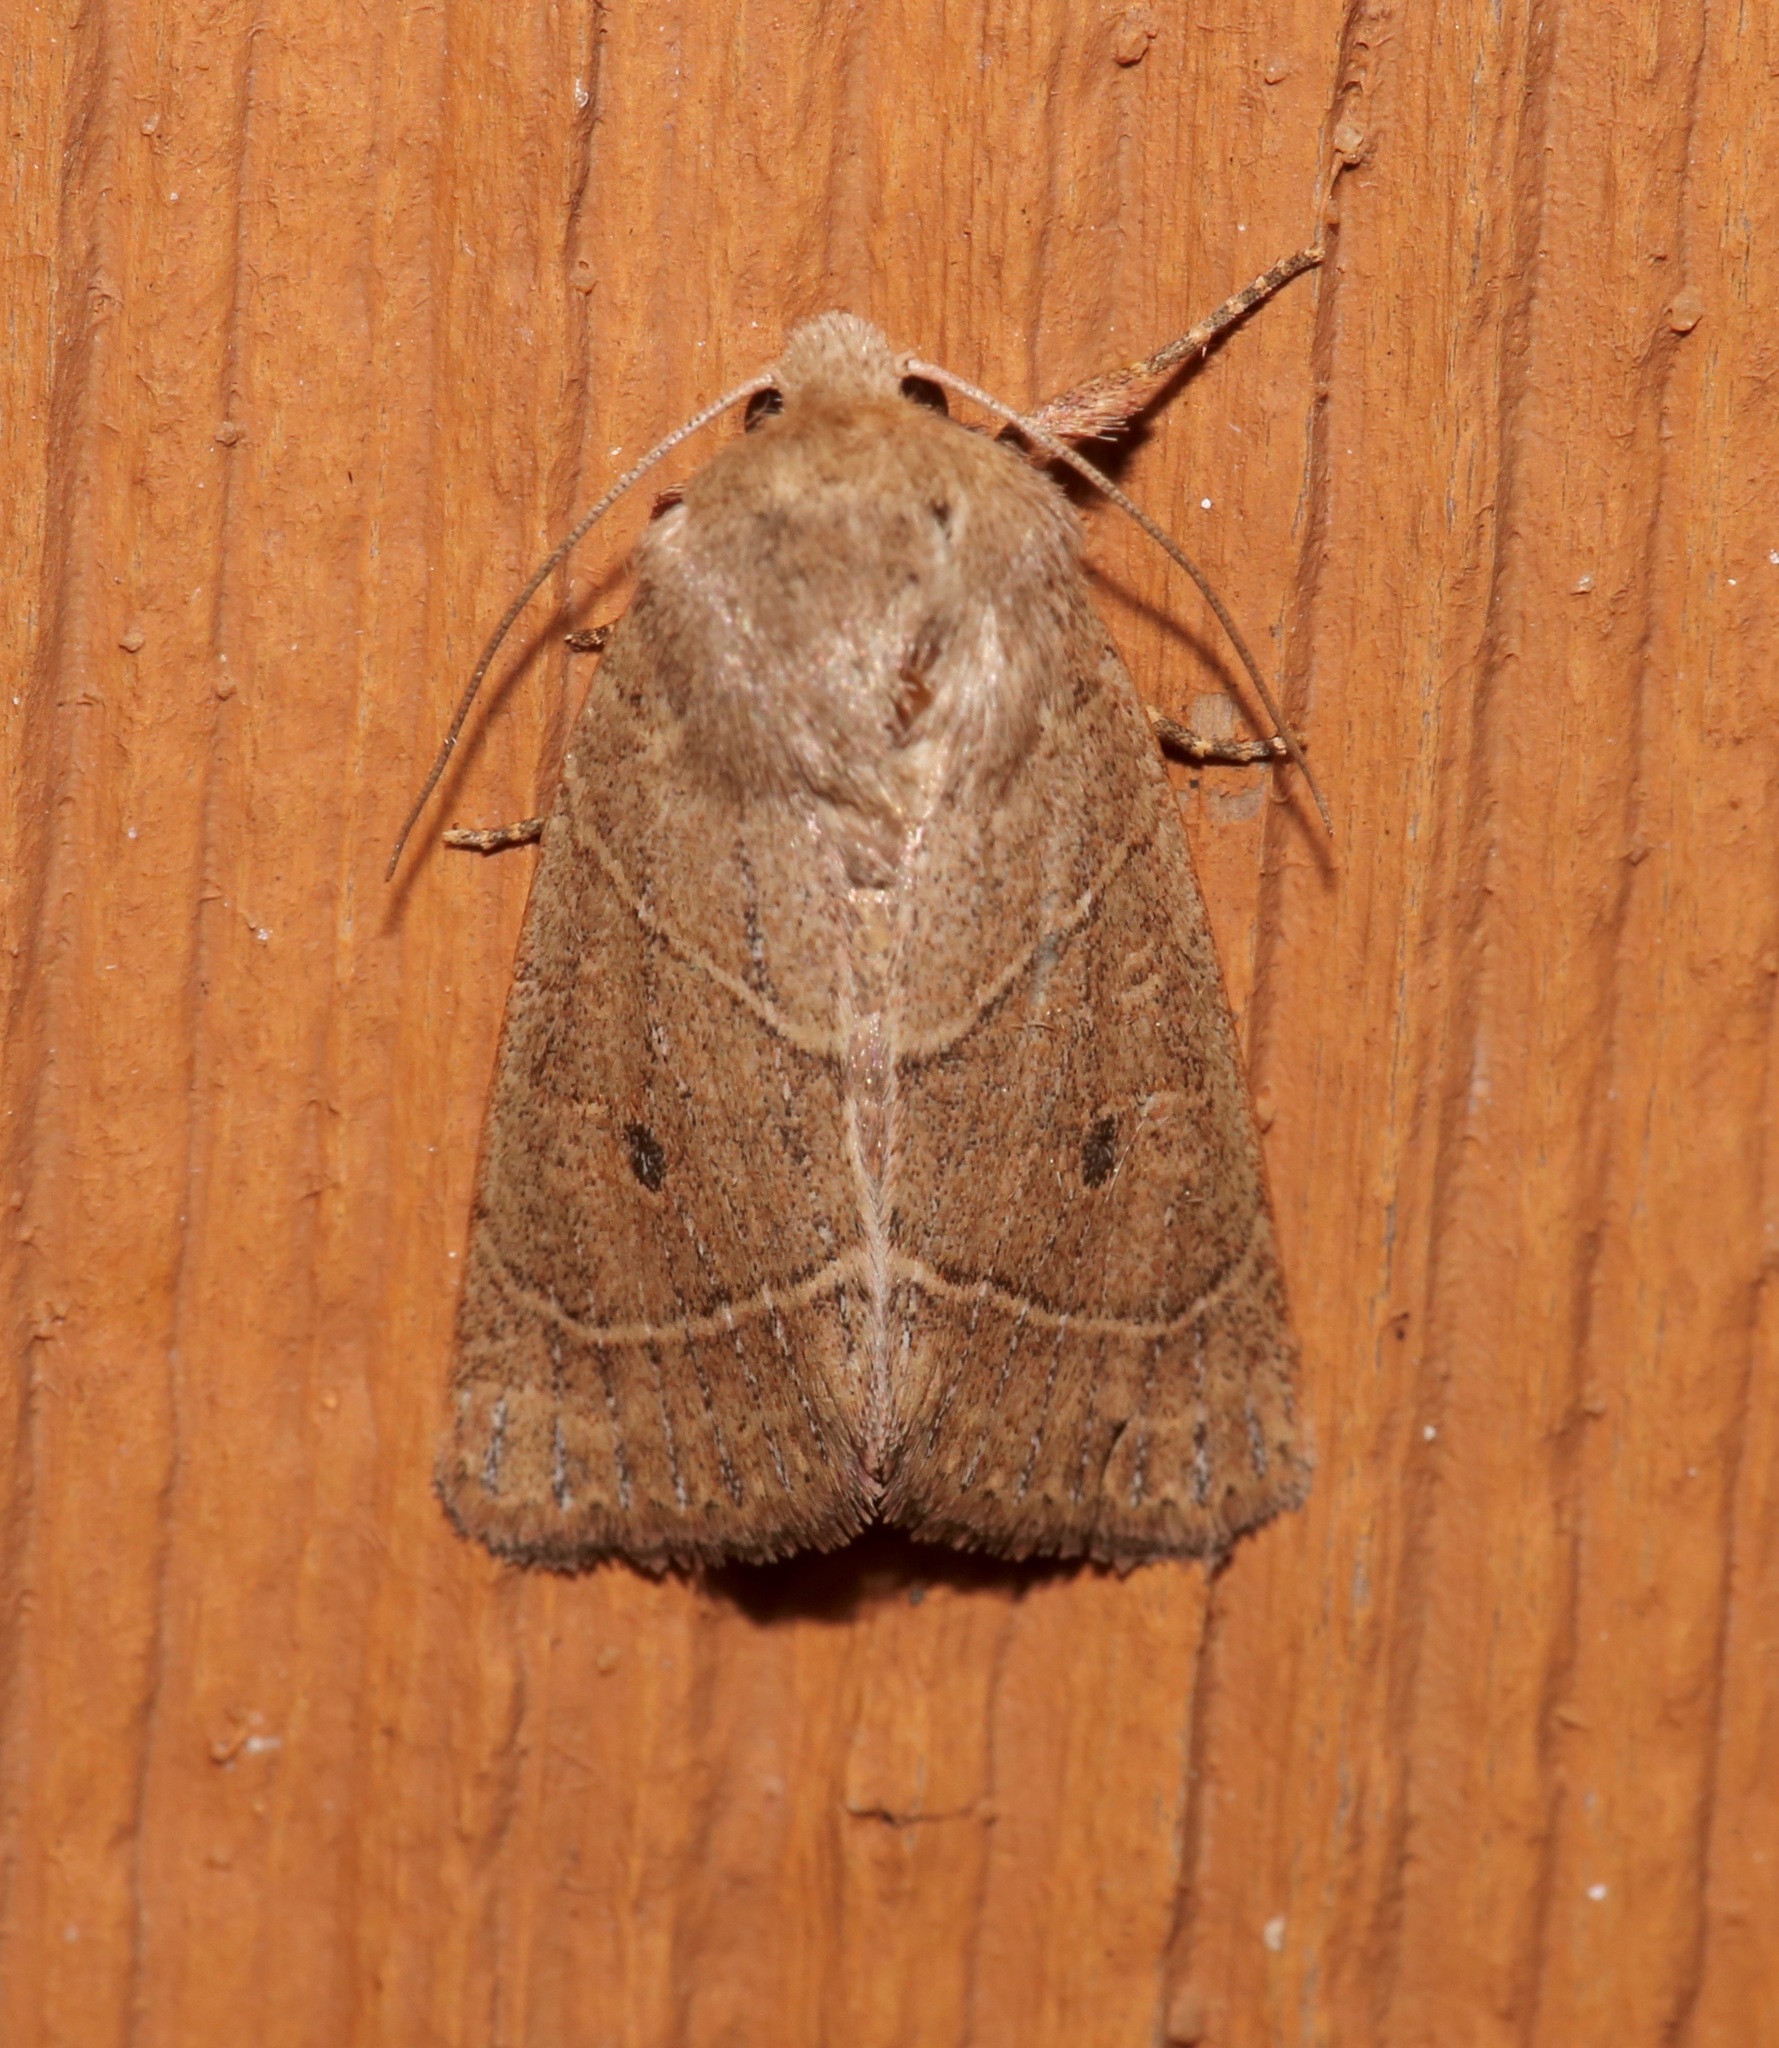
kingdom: Animalia
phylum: Arthropoda
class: Insecta
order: Lepidoptera
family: Noctuidae
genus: Ulolonche
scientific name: Ulolonche culea
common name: Sheathed quaker
